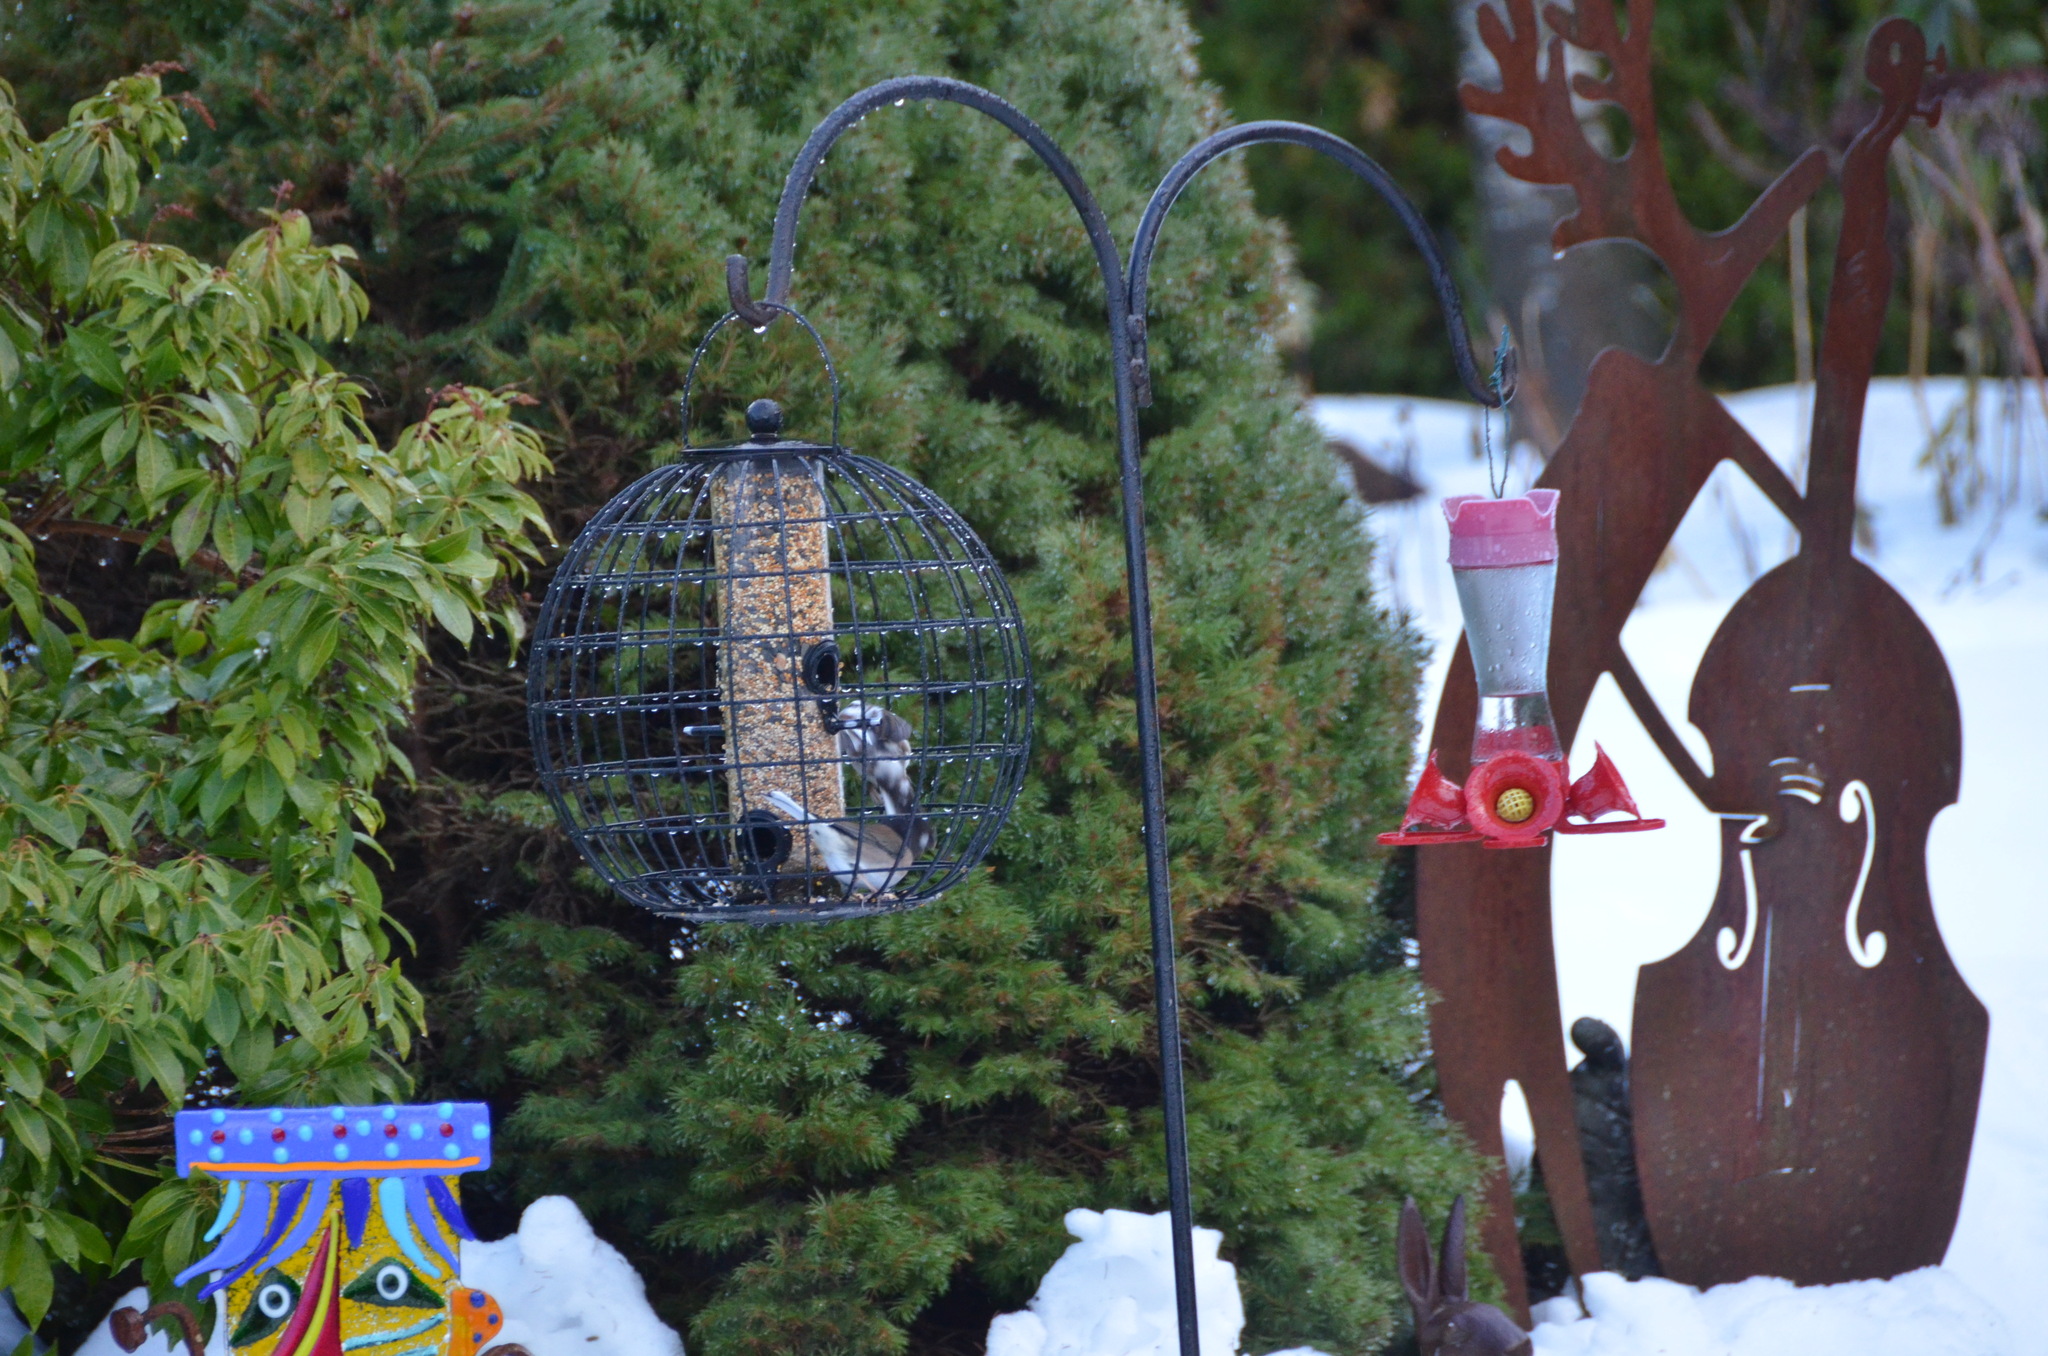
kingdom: Animalia
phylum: Chordata
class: Aves
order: Passeriformes
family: Passerellidae
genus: Junco
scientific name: Junco hyemalis
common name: Dark-eyed junco
